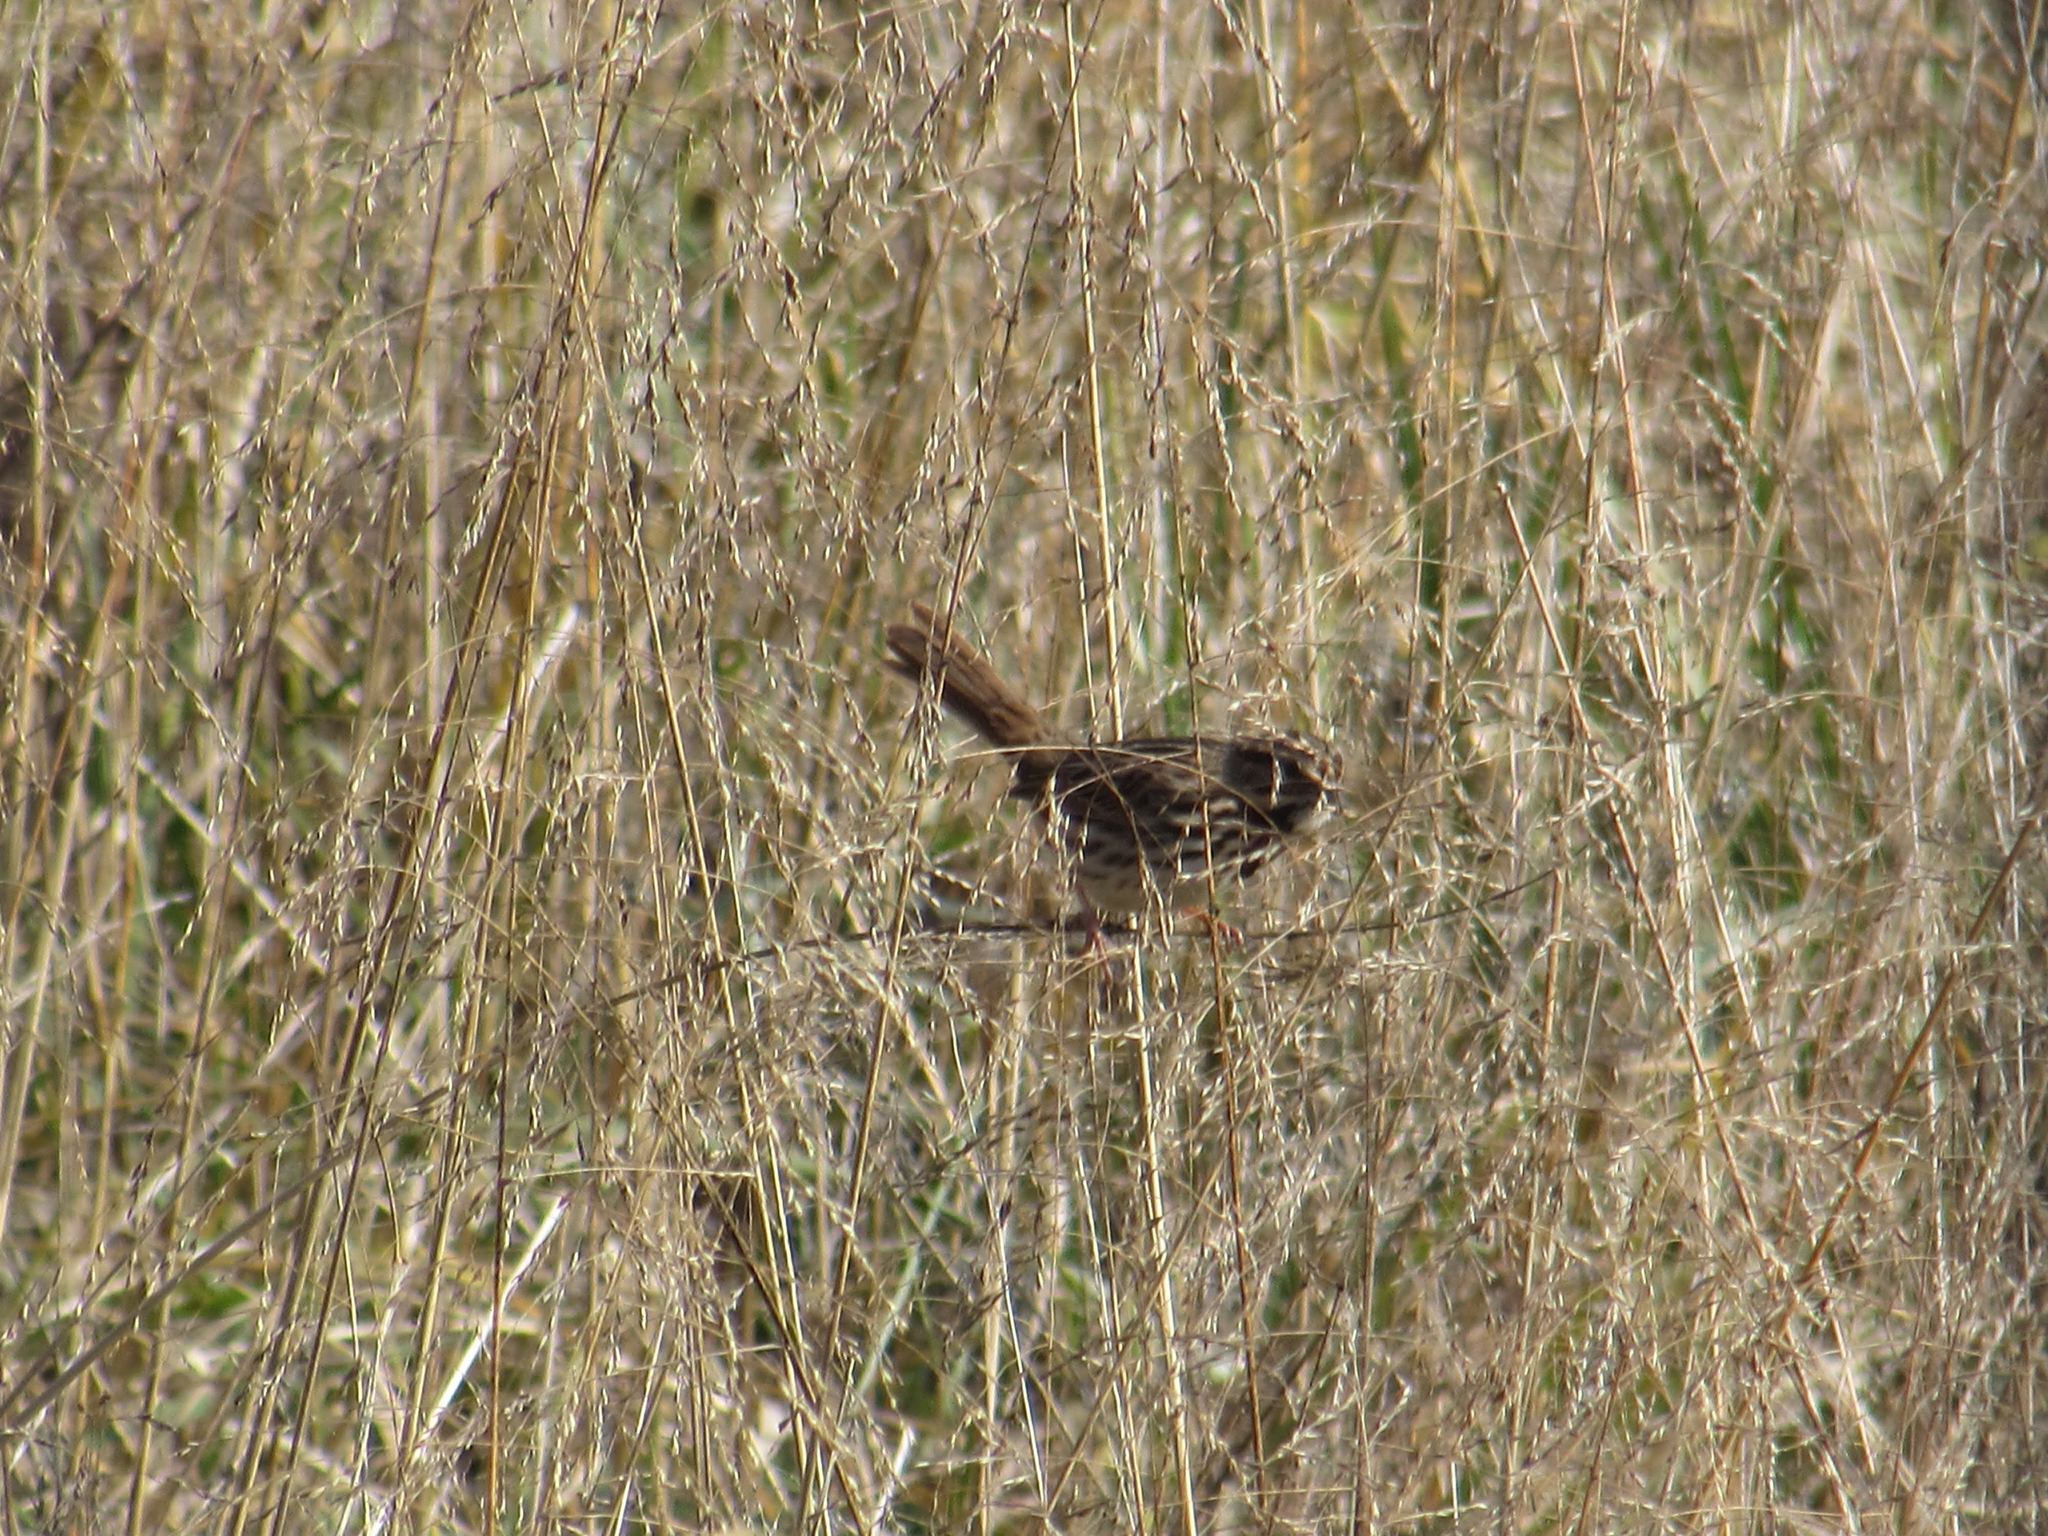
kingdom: Animalia
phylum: Chordata
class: Aves
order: Passeriformes
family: Passerellidae
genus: Melospiza
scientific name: Melospiza melodia
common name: Song sparrow
